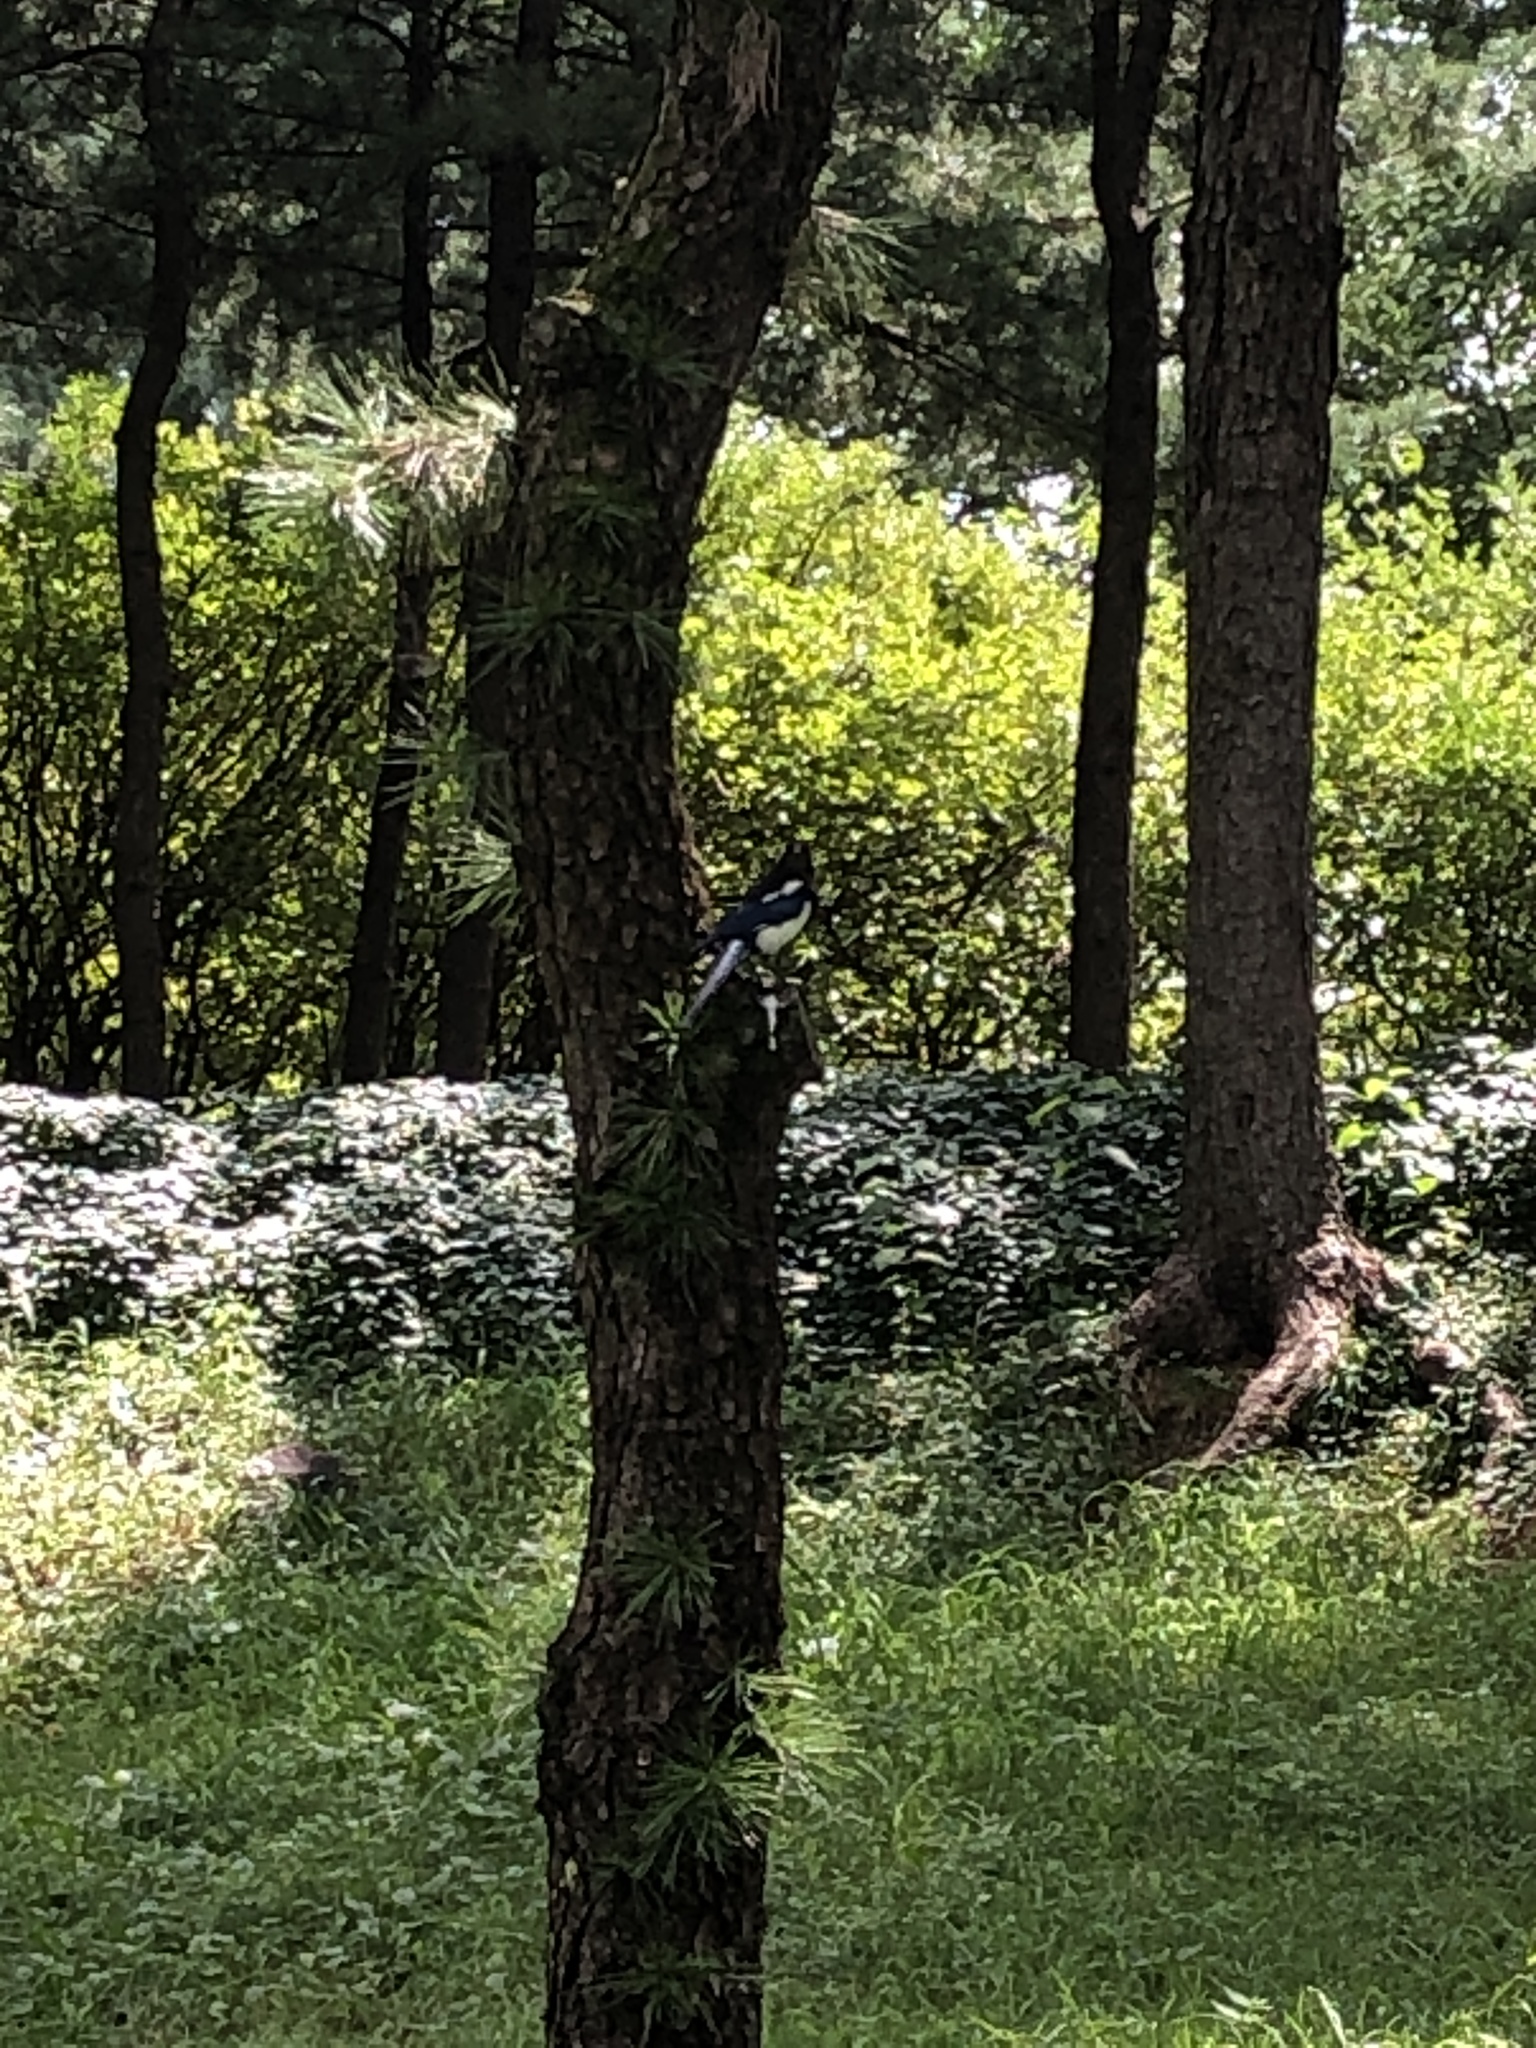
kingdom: Animalia
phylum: Chordata
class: Aves
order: Passeriformes
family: Corvidae
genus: Pica
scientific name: Pica serica
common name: Oriental magpie
